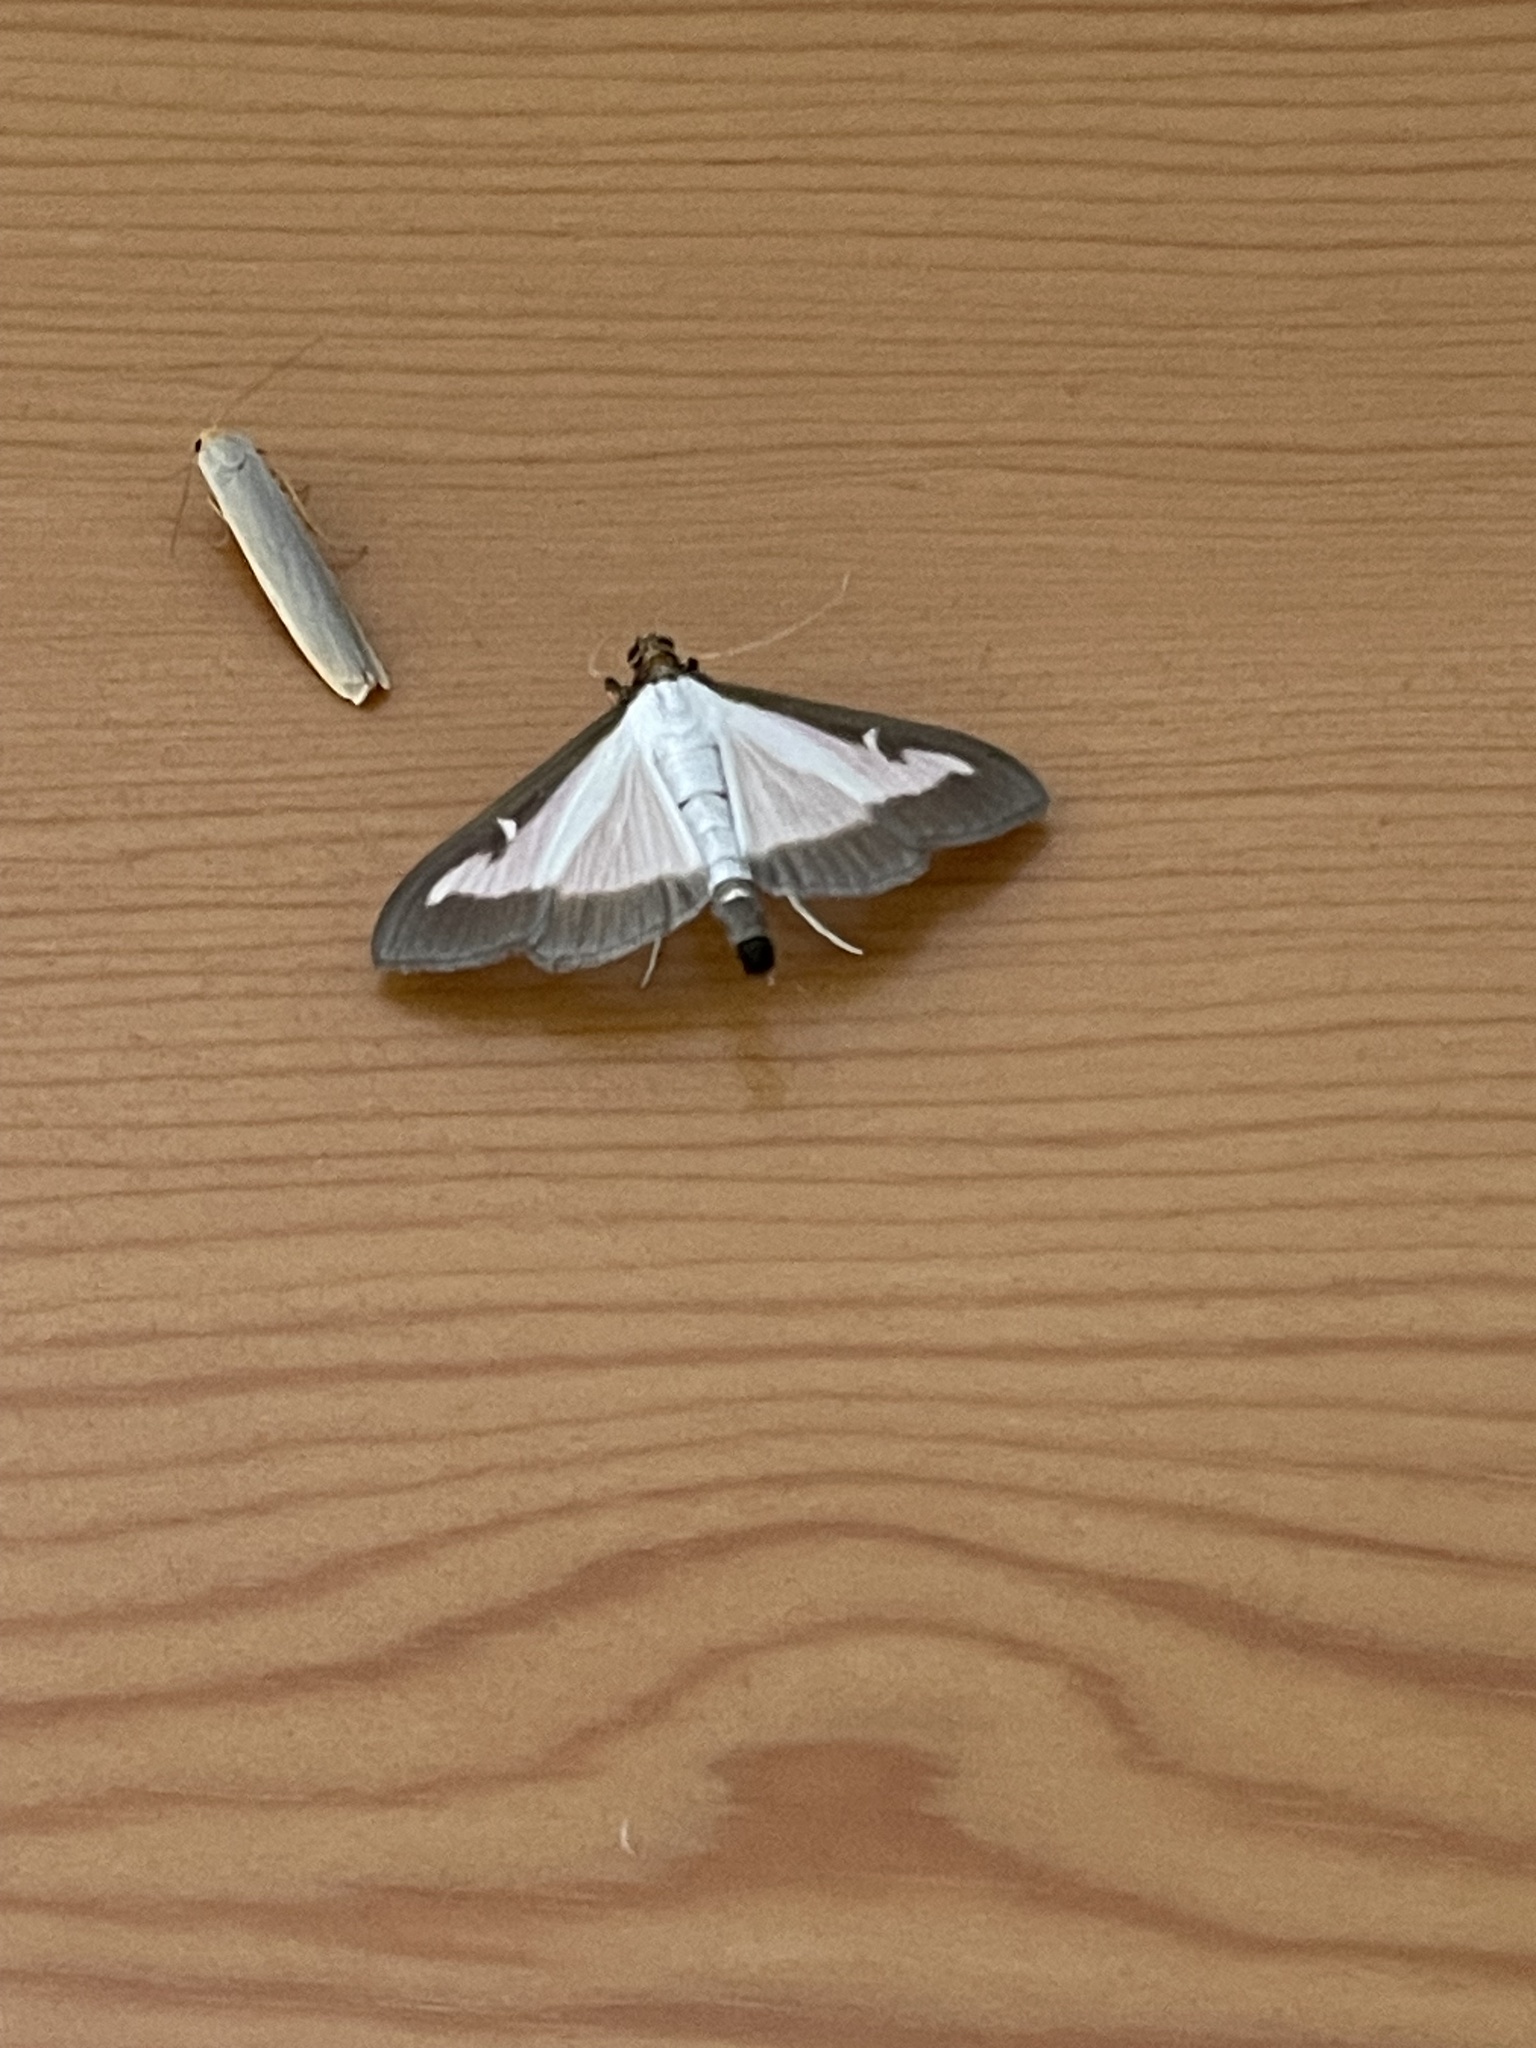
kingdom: Animalia
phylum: Arthropoda
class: Insecta
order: Lepidoptera
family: Crambidae
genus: Cydalima
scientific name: Cydalima perspectalis
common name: Box tree moth
